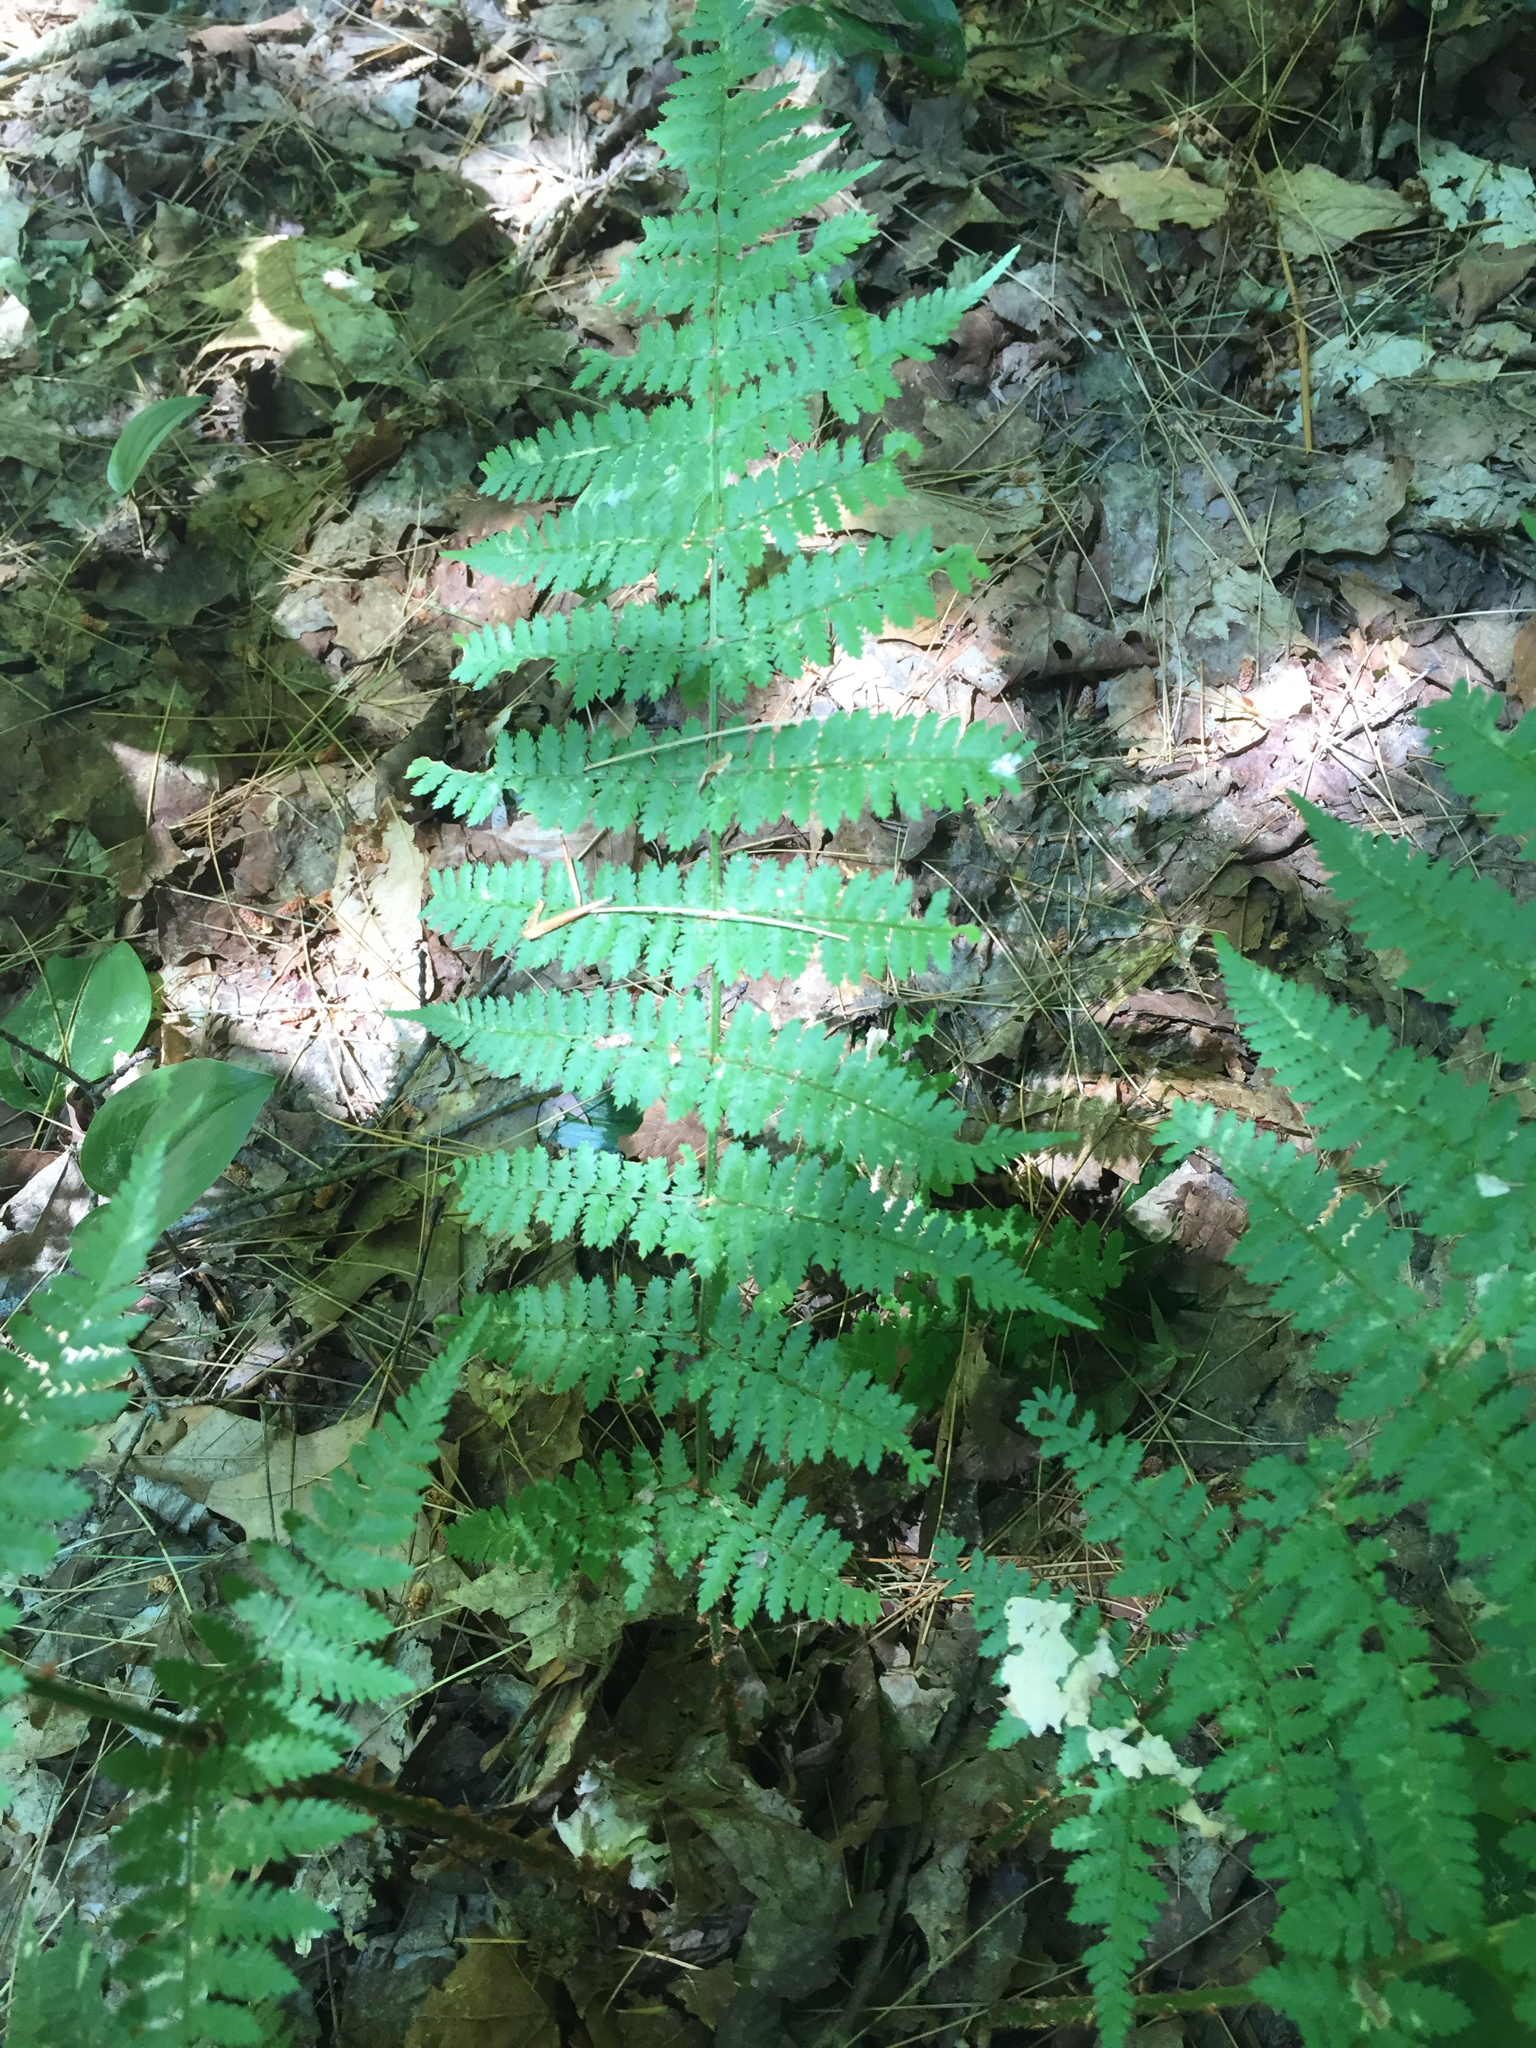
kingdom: Plantae
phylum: Tracheophyta
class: Polypodiopsida
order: Polypodiales
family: Dryopteridaceae
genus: Dryopteris
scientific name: Dryopteris intermedia
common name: Evergreen wood fern
